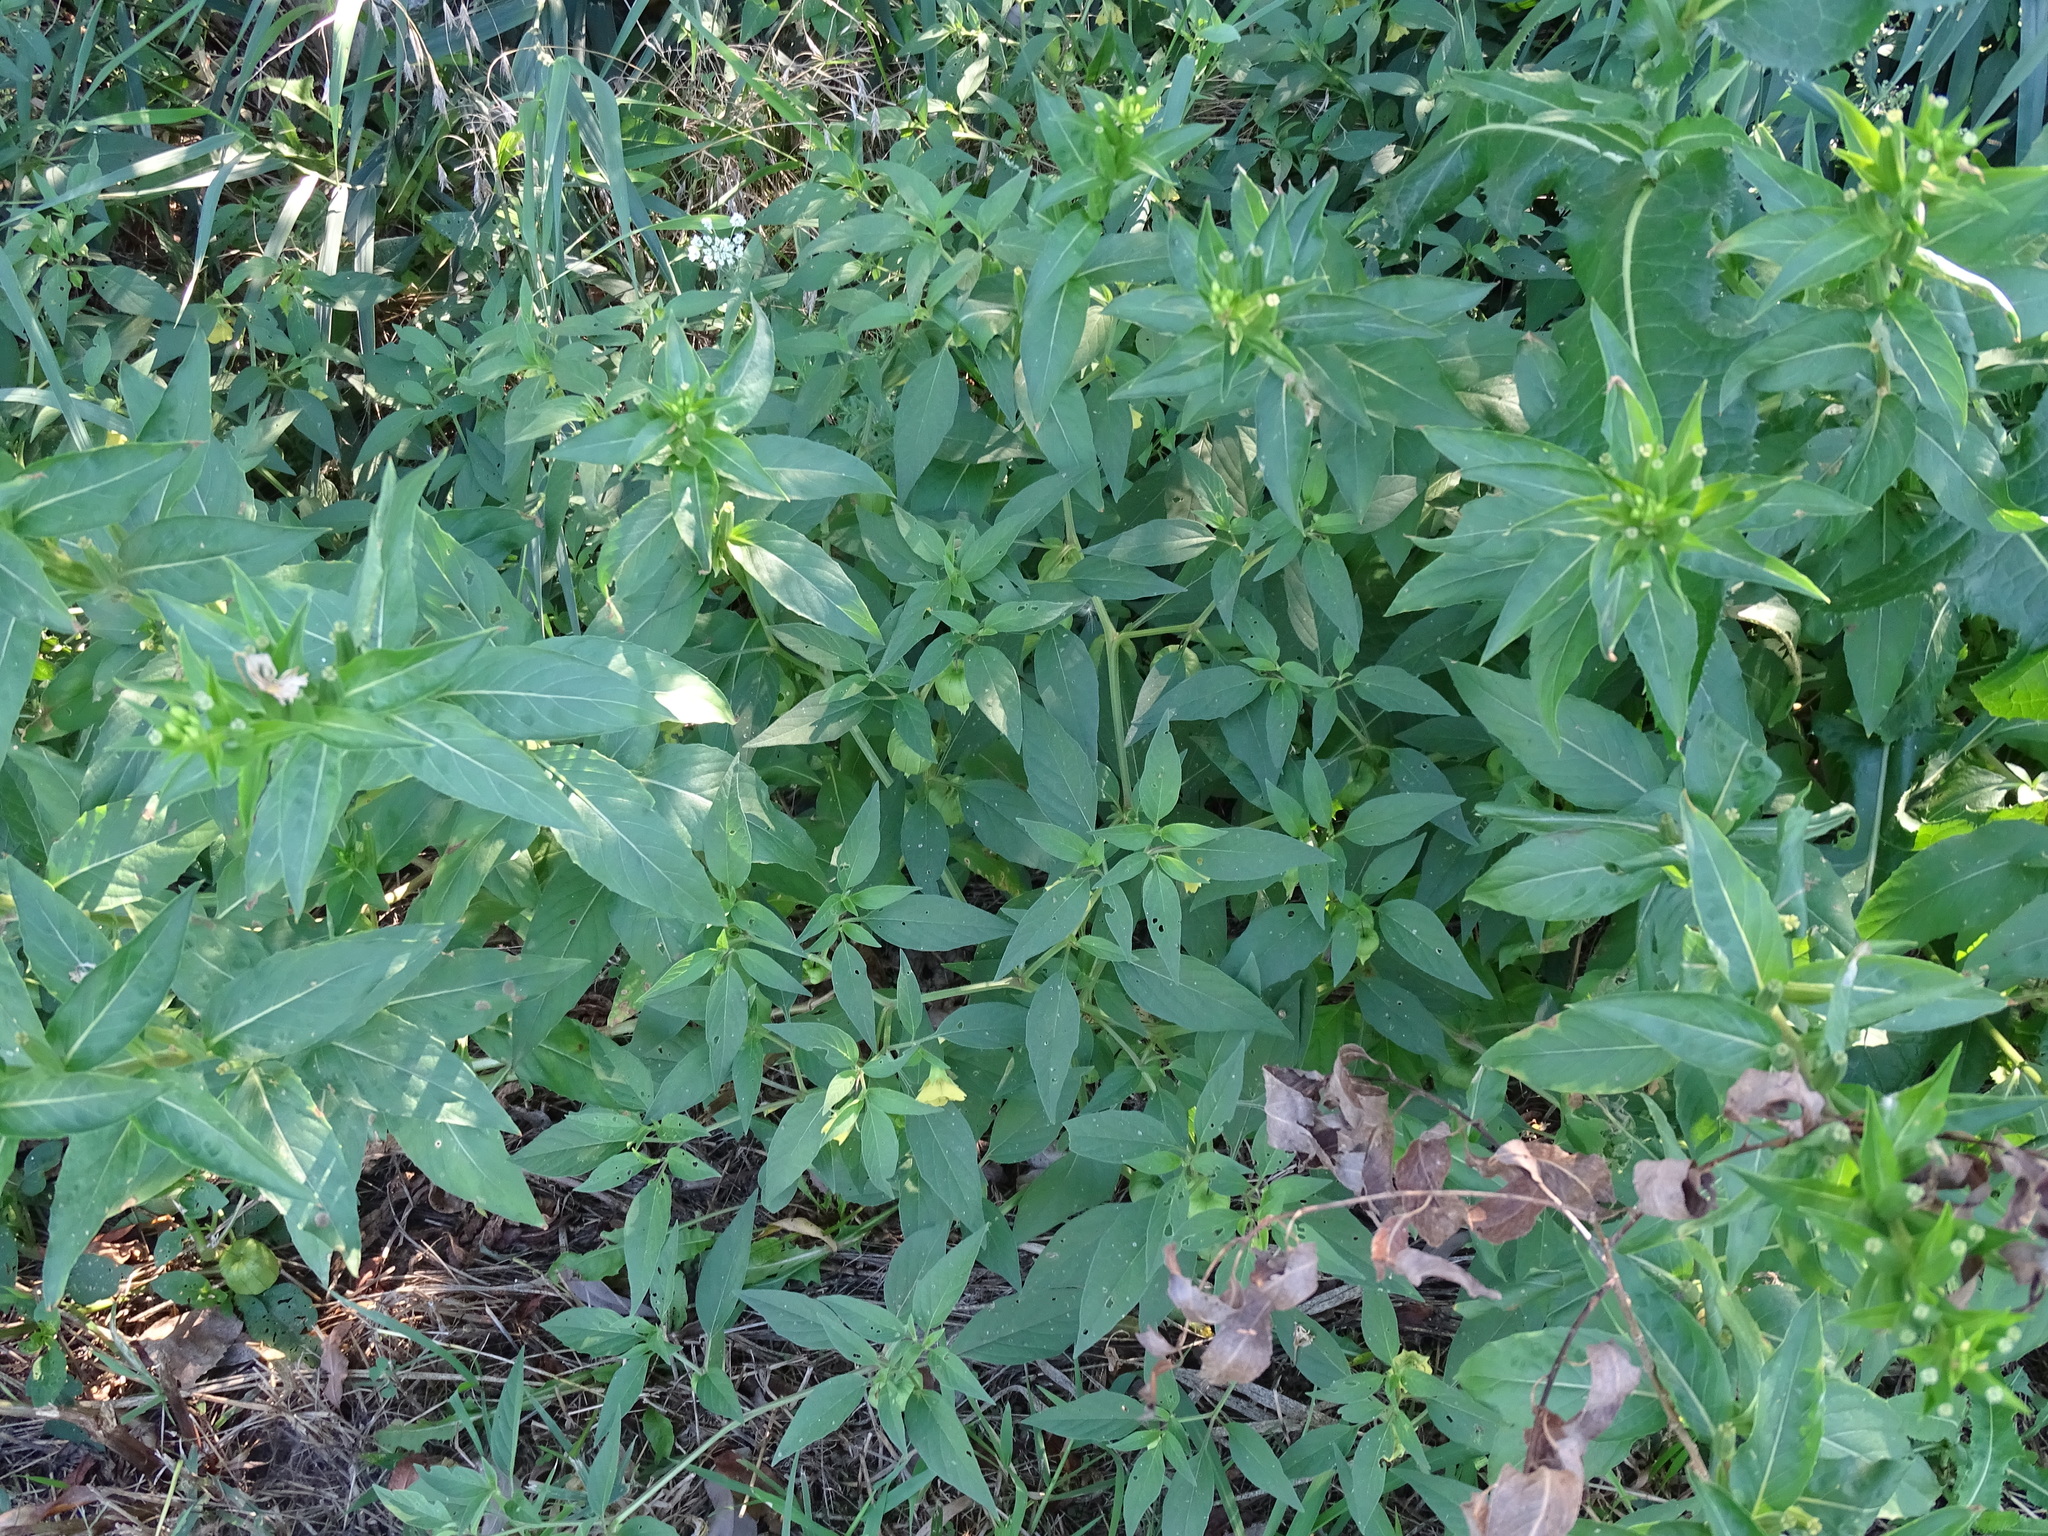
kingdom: Plantae
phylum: Tracheophyta
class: Magnoliopsida
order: Solanales
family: Solanaceae
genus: Physalis
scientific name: Physalis longifolia
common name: Common ground-cherry
